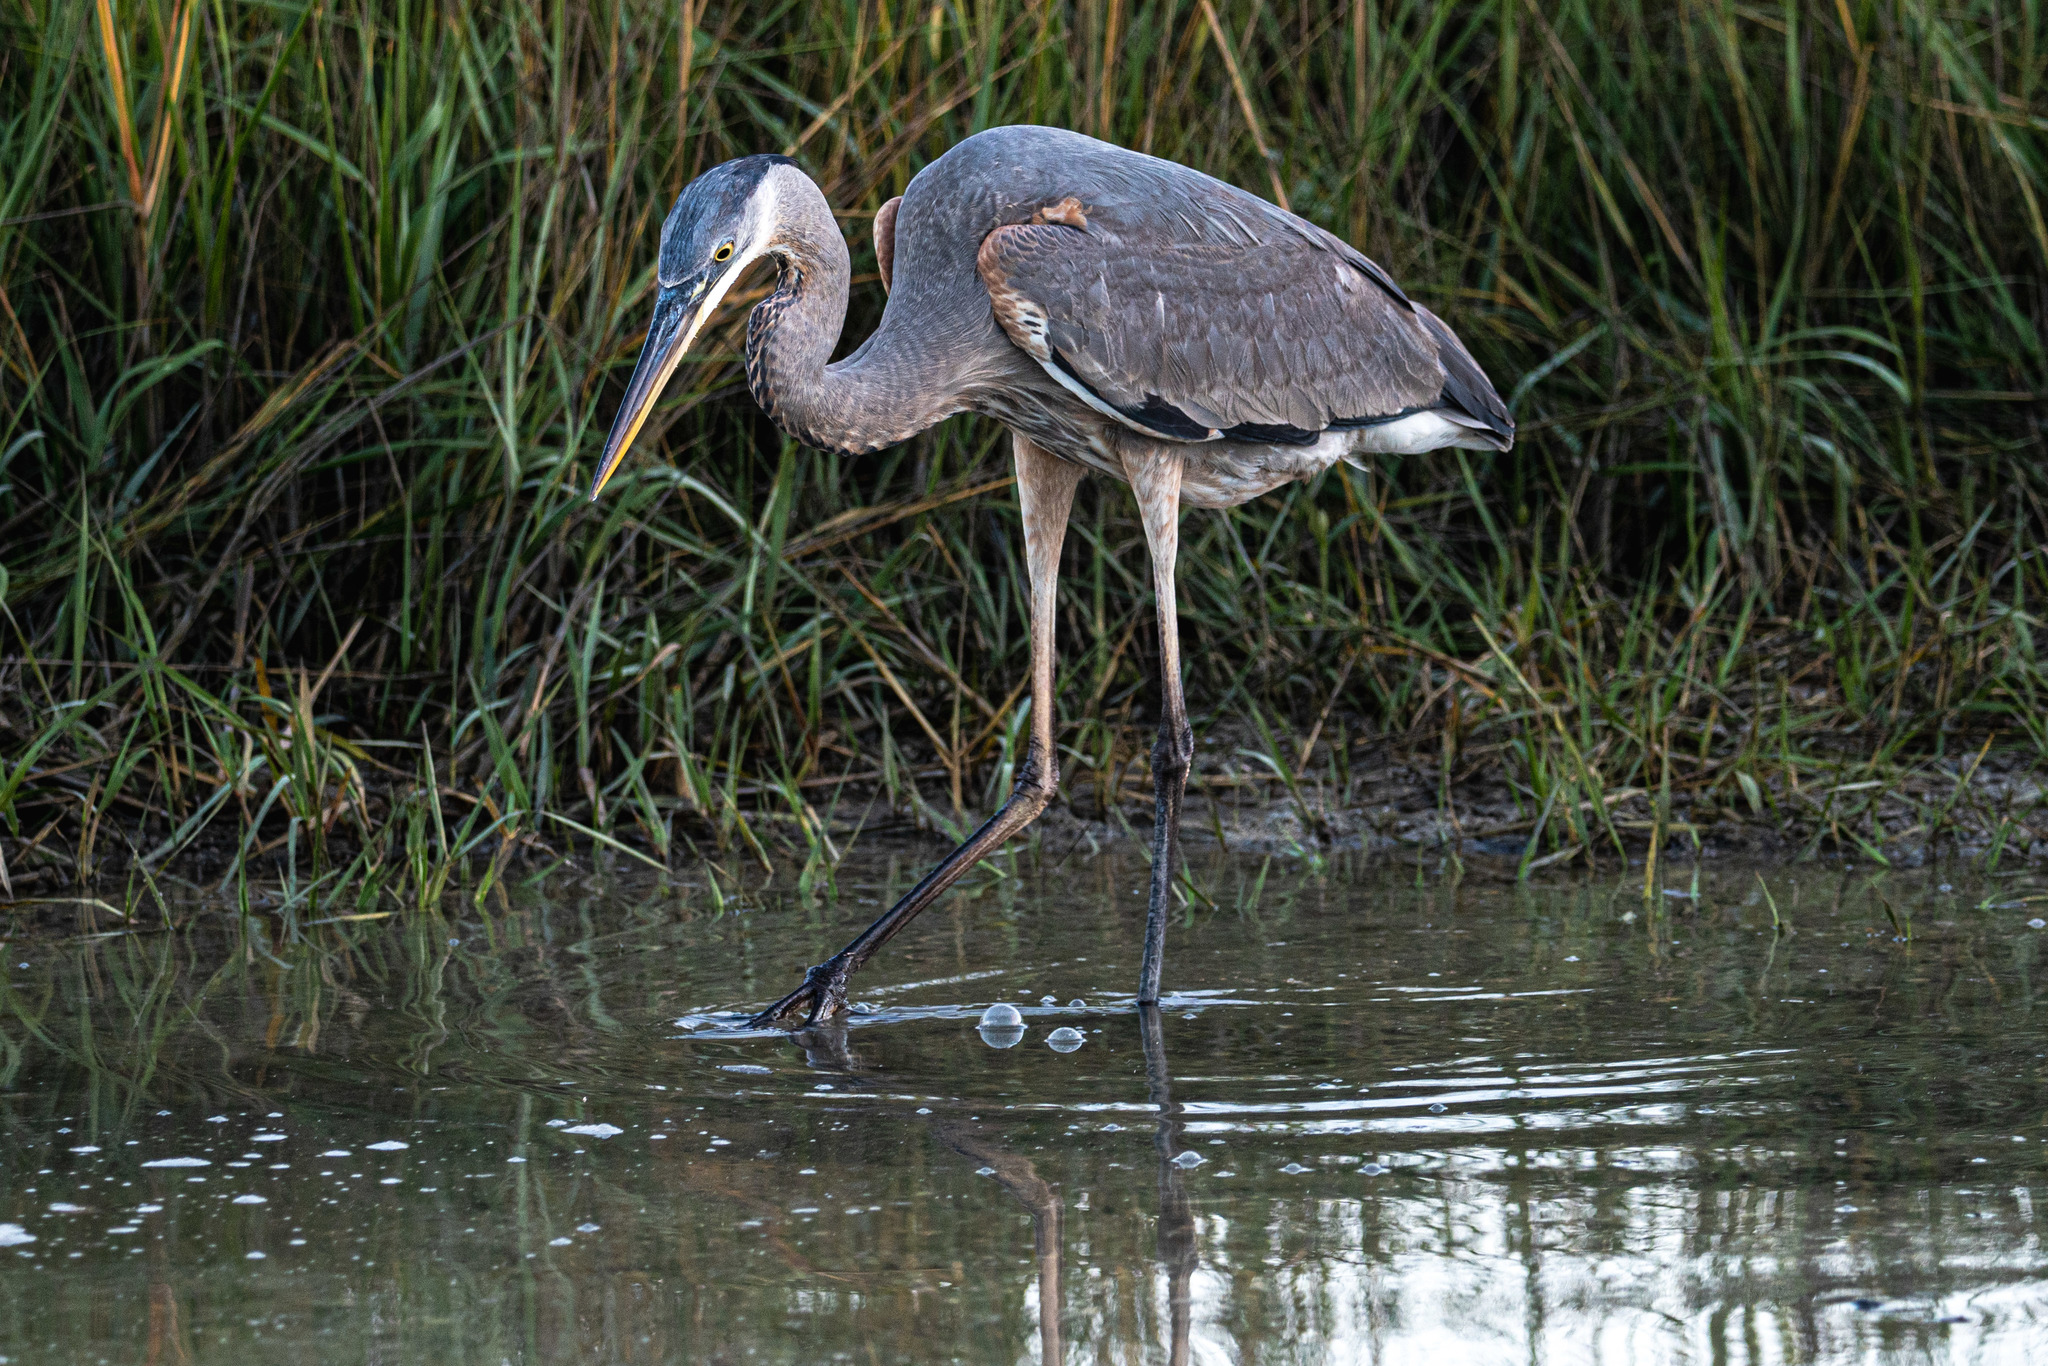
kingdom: Animalia
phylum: Chordata
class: Aves
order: Pelecaniformes
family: Ardeidae
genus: Ardea
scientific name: Ardea herodias
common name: Great blue heron
